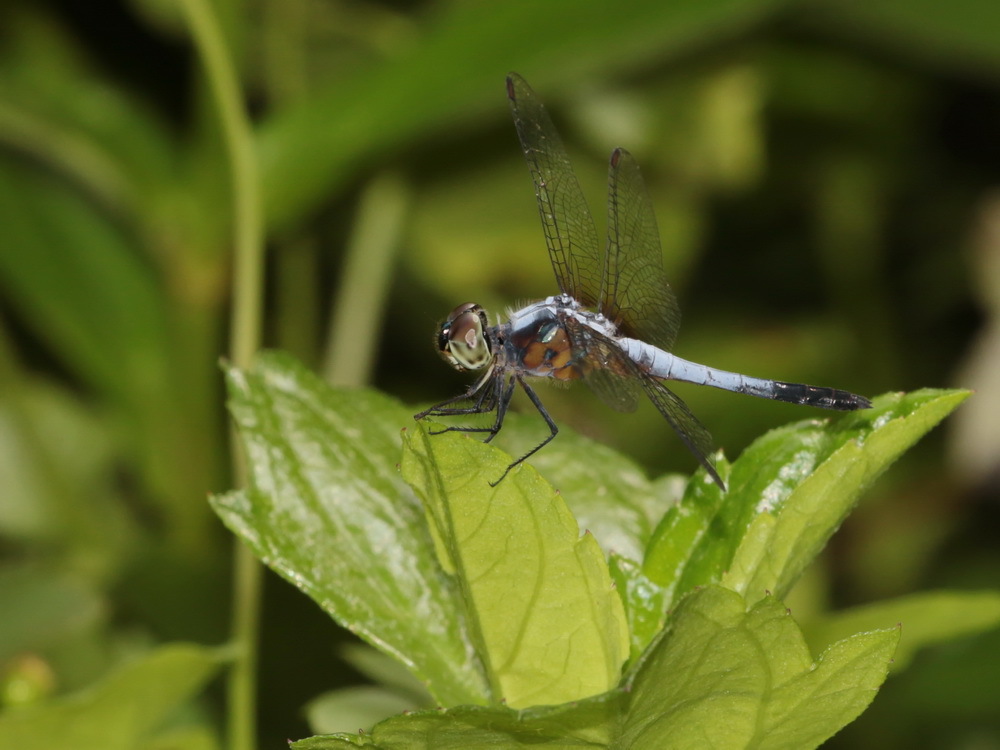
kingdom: Animalia
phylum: Arthropoda
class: Insecta
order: Odonata
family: Libellulidae
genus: Brachydiplax
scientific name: Brachydiplax chalybea
